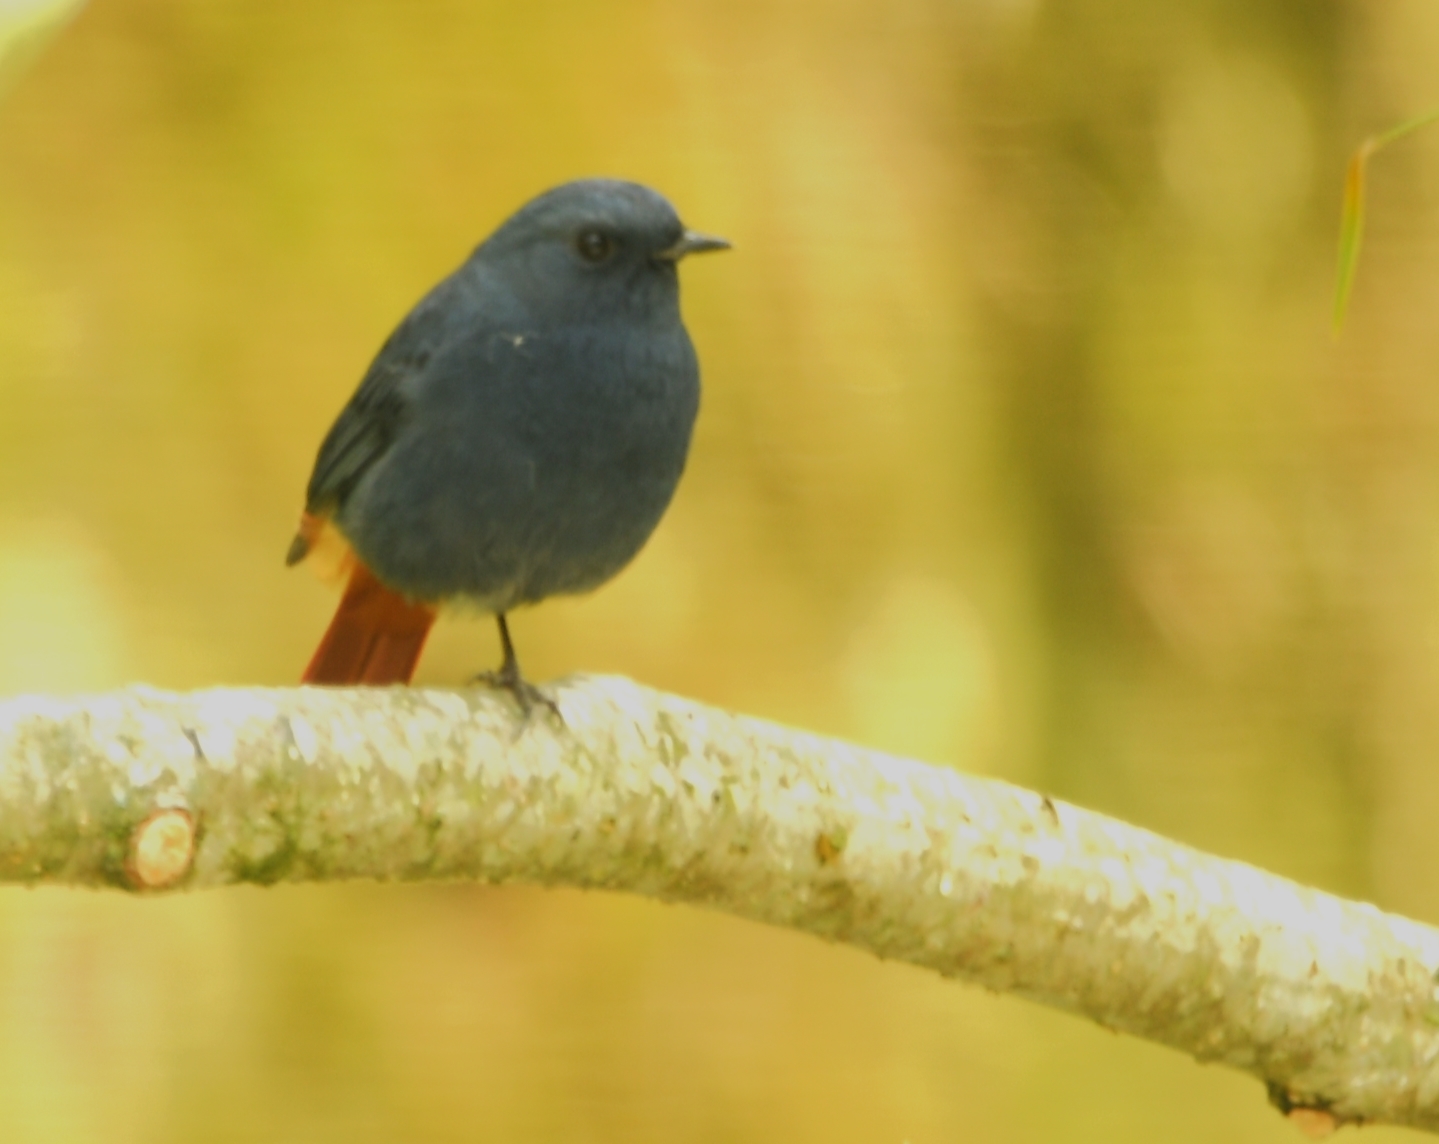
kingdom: Animalia
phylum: Chordata
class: Aves
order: Passeriformes
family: Muscicapidae
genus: Phoenicurus
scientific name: Phoenicurus fuliginosus
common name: Plumbeous water redstart
